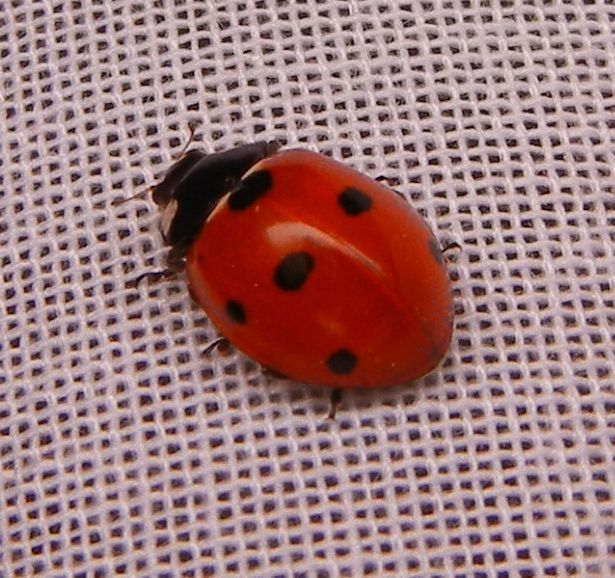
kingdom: Animalia
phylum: Arthropoda
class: Insecta
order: Coleoptera
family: Coccinellidae
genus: Coccinella
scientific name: Coccinella septempunctata
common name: Sevenspotted lady beetle
